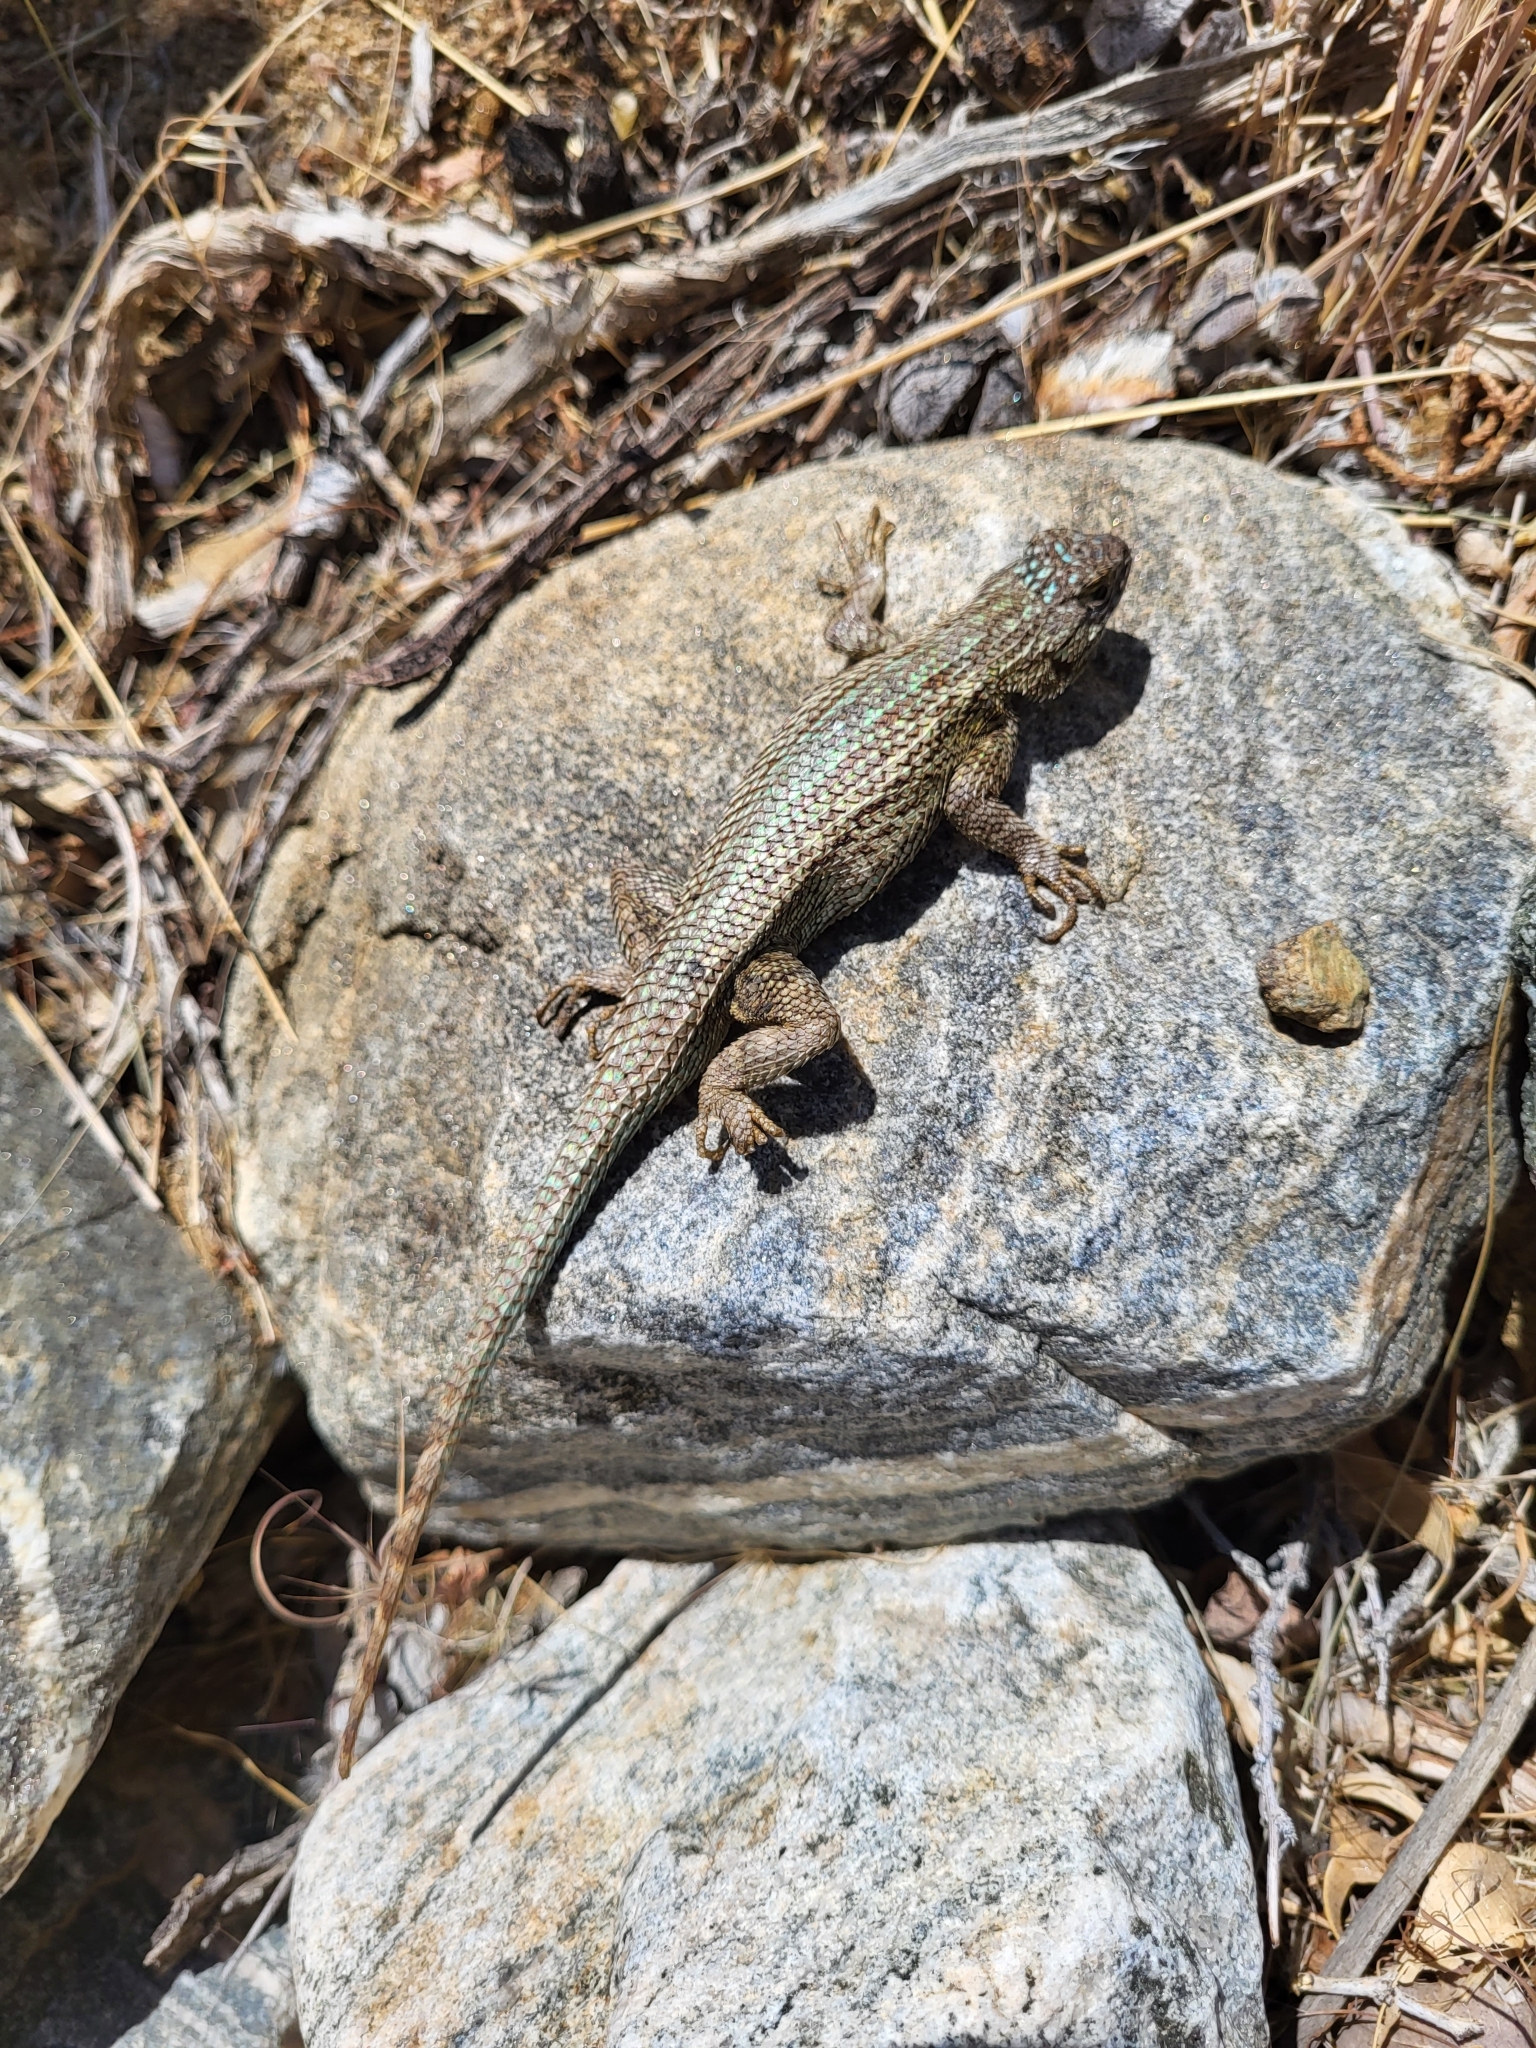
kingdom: Animalia
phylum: Chordata
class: Squamata
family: Phrynosomatidae
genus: Sceloporus
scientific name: Sceloporus occidentalis
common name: Western fence lizard
